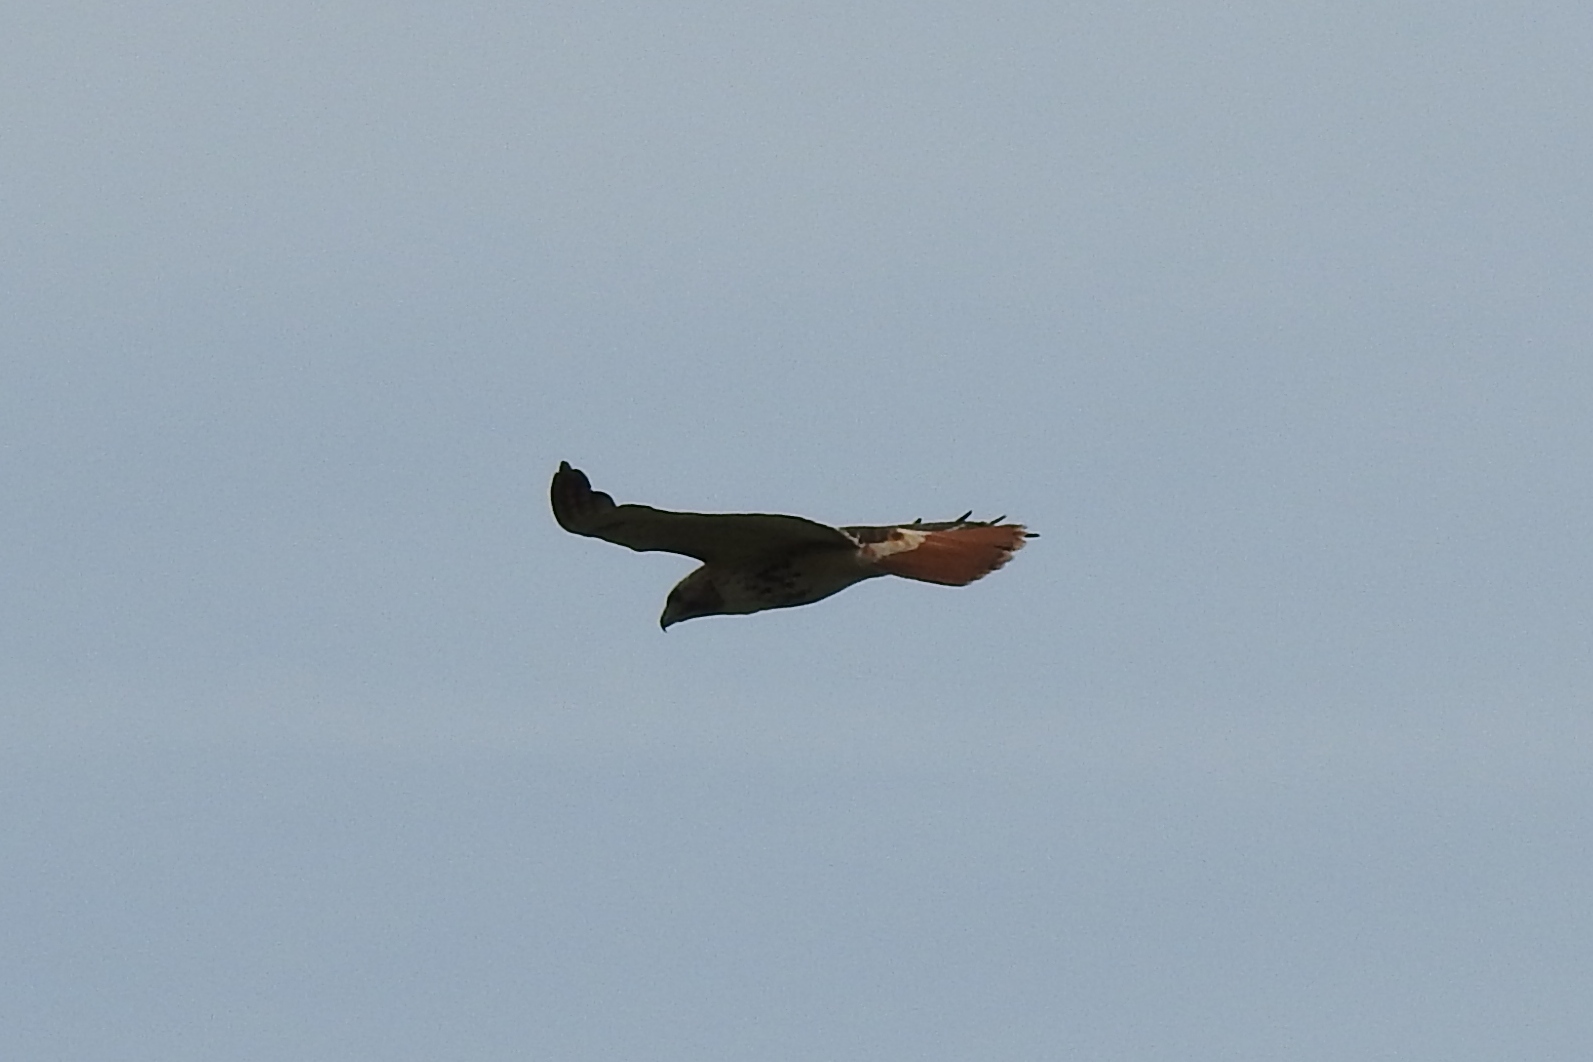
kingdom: Animalia
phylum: Chordata
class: Aves
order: Accipitriformes
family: Accipitridae
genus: Buteo
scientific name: Buteo jamaicensis
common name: Red-tailed hawk
